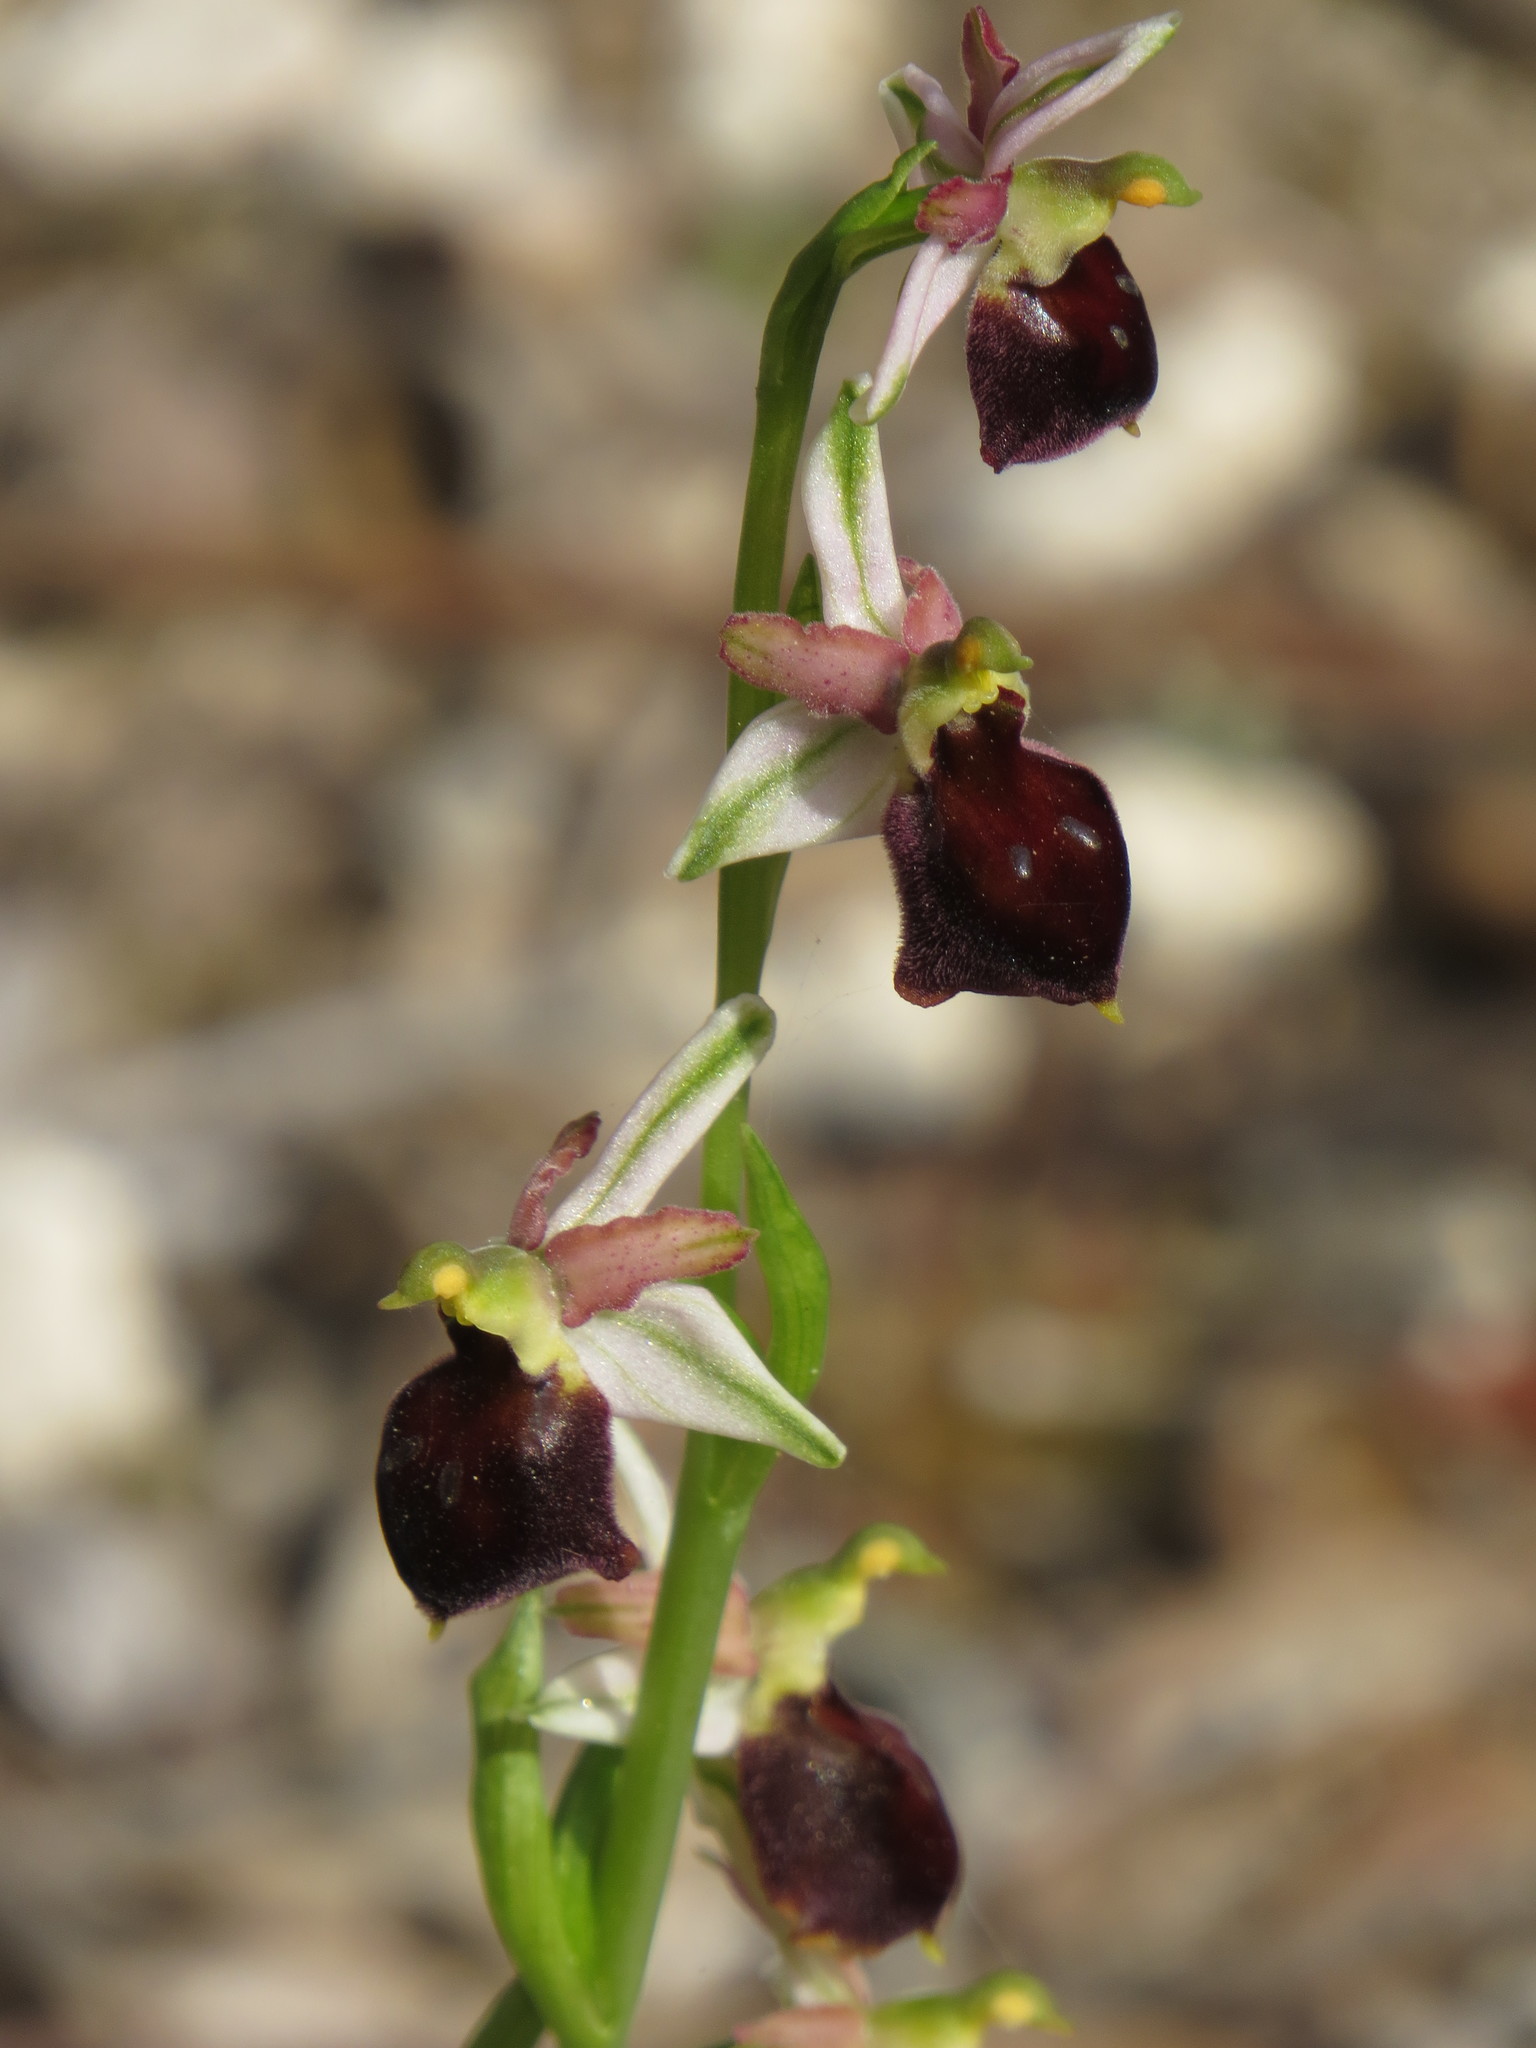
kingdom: Plantae
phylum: Tracheophyta
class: Liliopsida
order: Asparagales
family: Orchidaceae
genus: Ophrys
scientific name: Ophrys arachnitiformis
